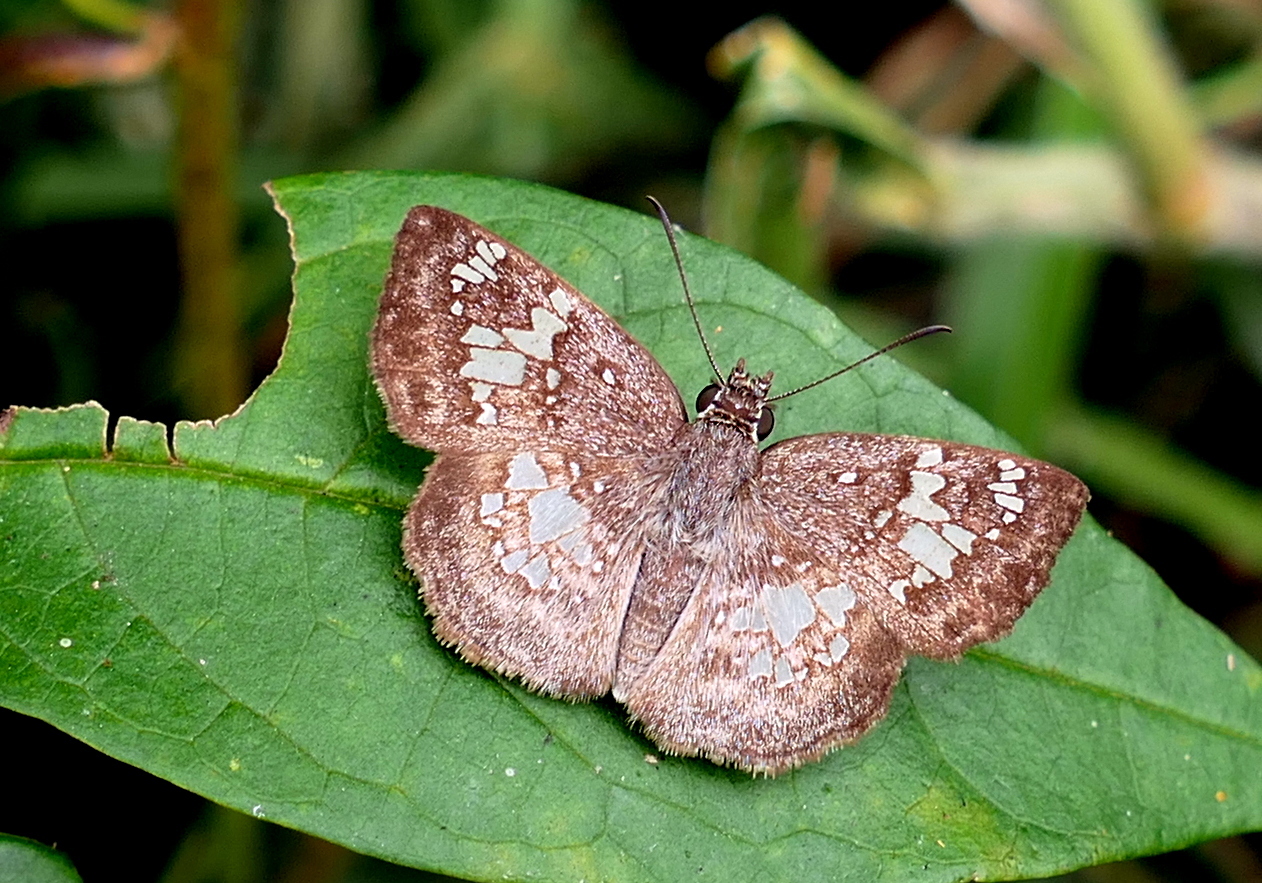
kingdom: Animalia
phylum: Arthropoda
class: Insecta
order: Lepidoptera
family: Hesperiidae
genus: Xenophanes
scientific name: Xenophanes tryxus
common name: Glassy-winged skipper
